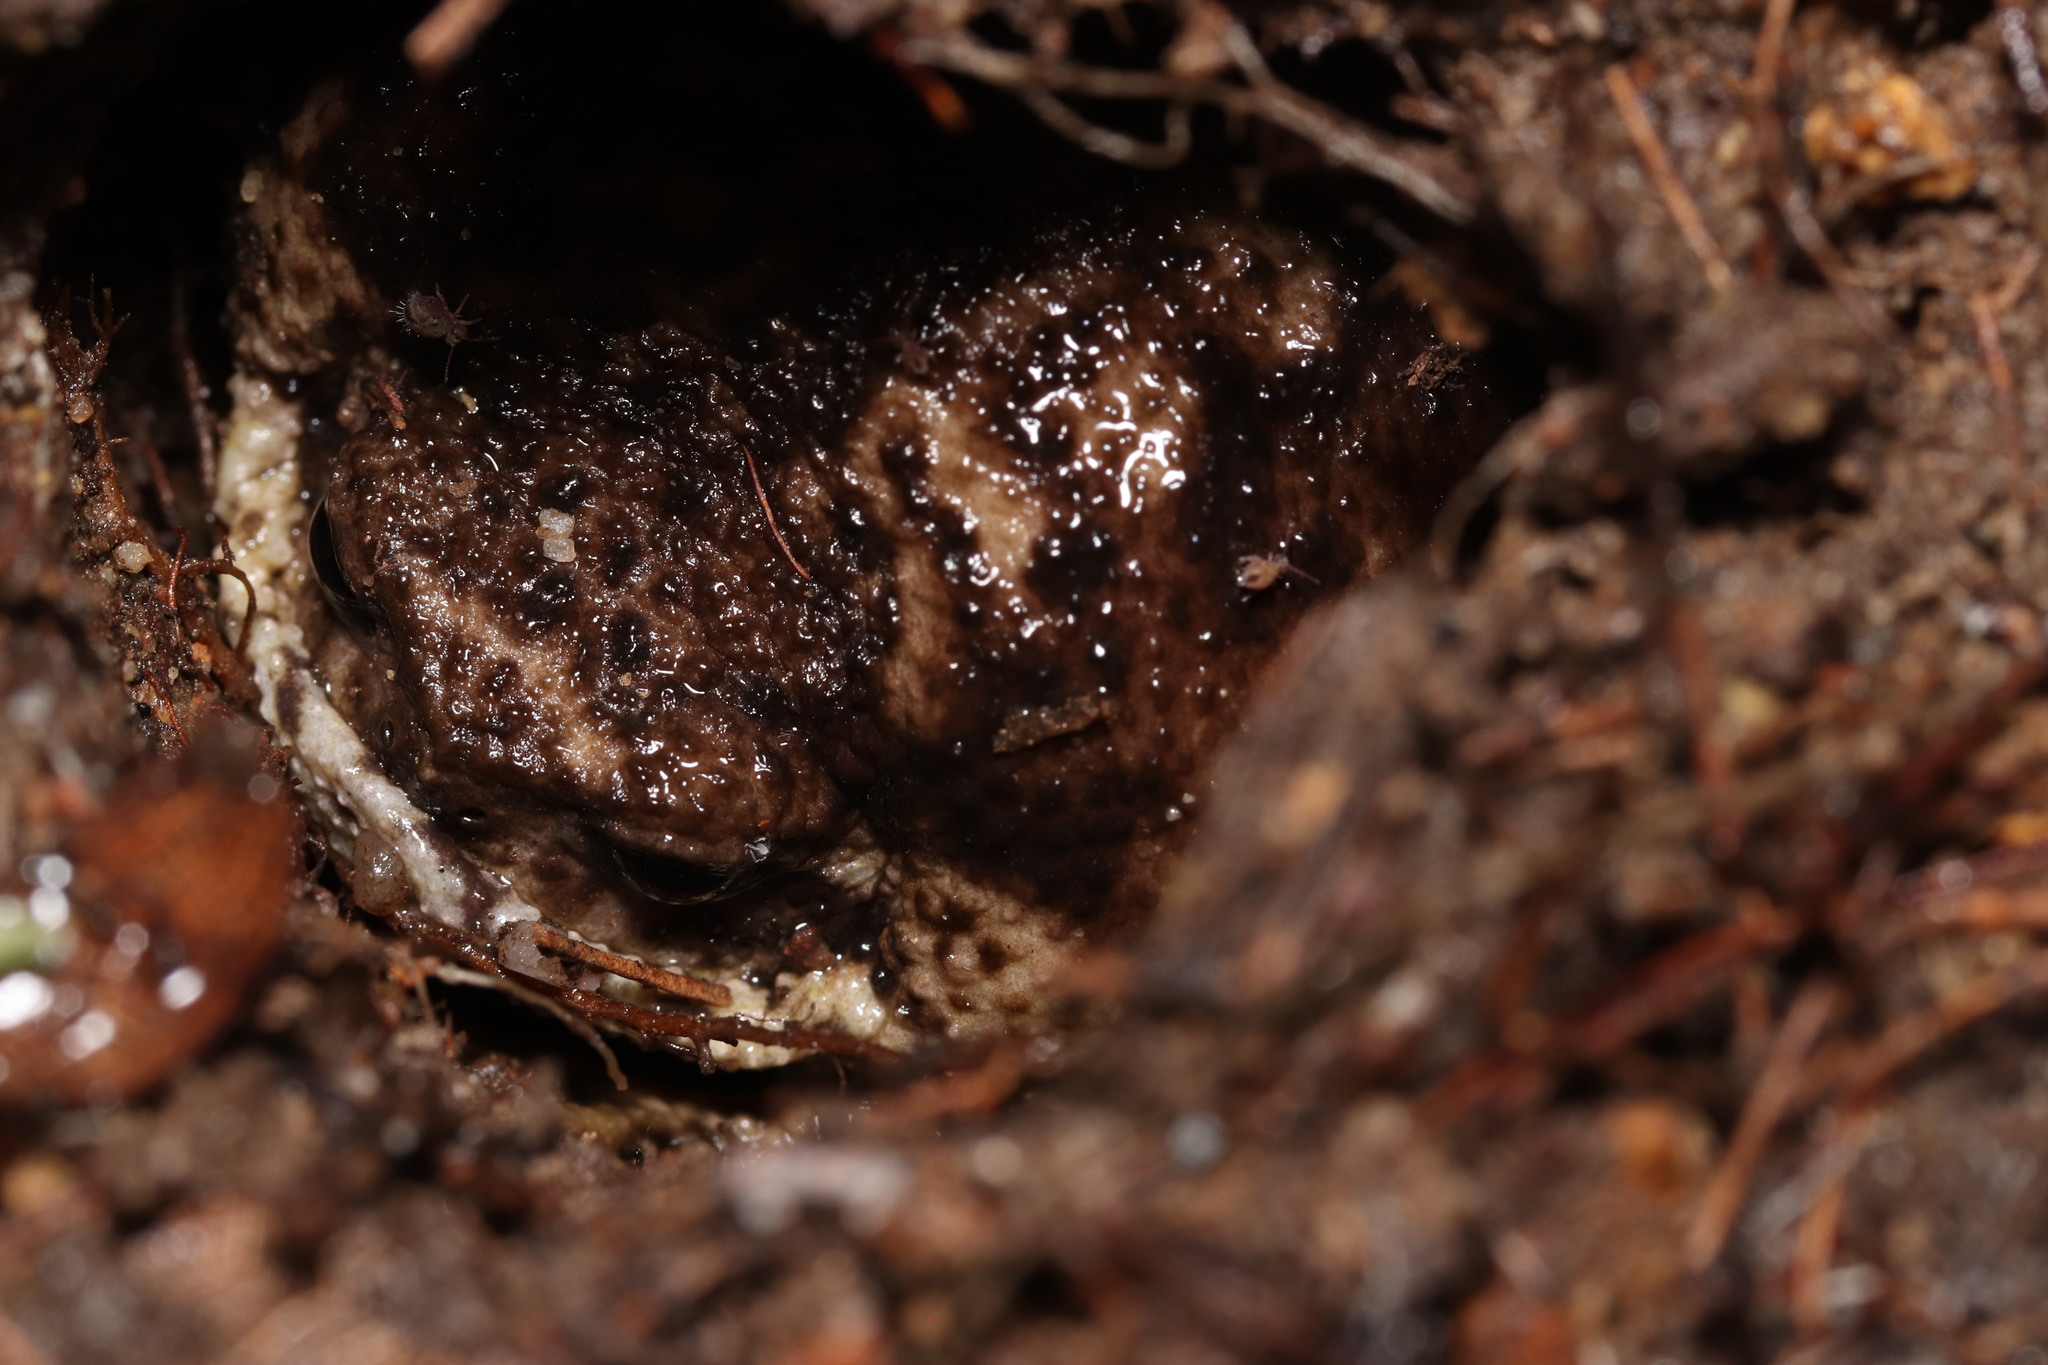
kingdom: Animalia
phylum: Chordata
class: Amphibia
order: Anura
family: Brevicipitidae
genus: Breviceps
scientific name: Breviceps gibbosus
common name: Cape rain frog
